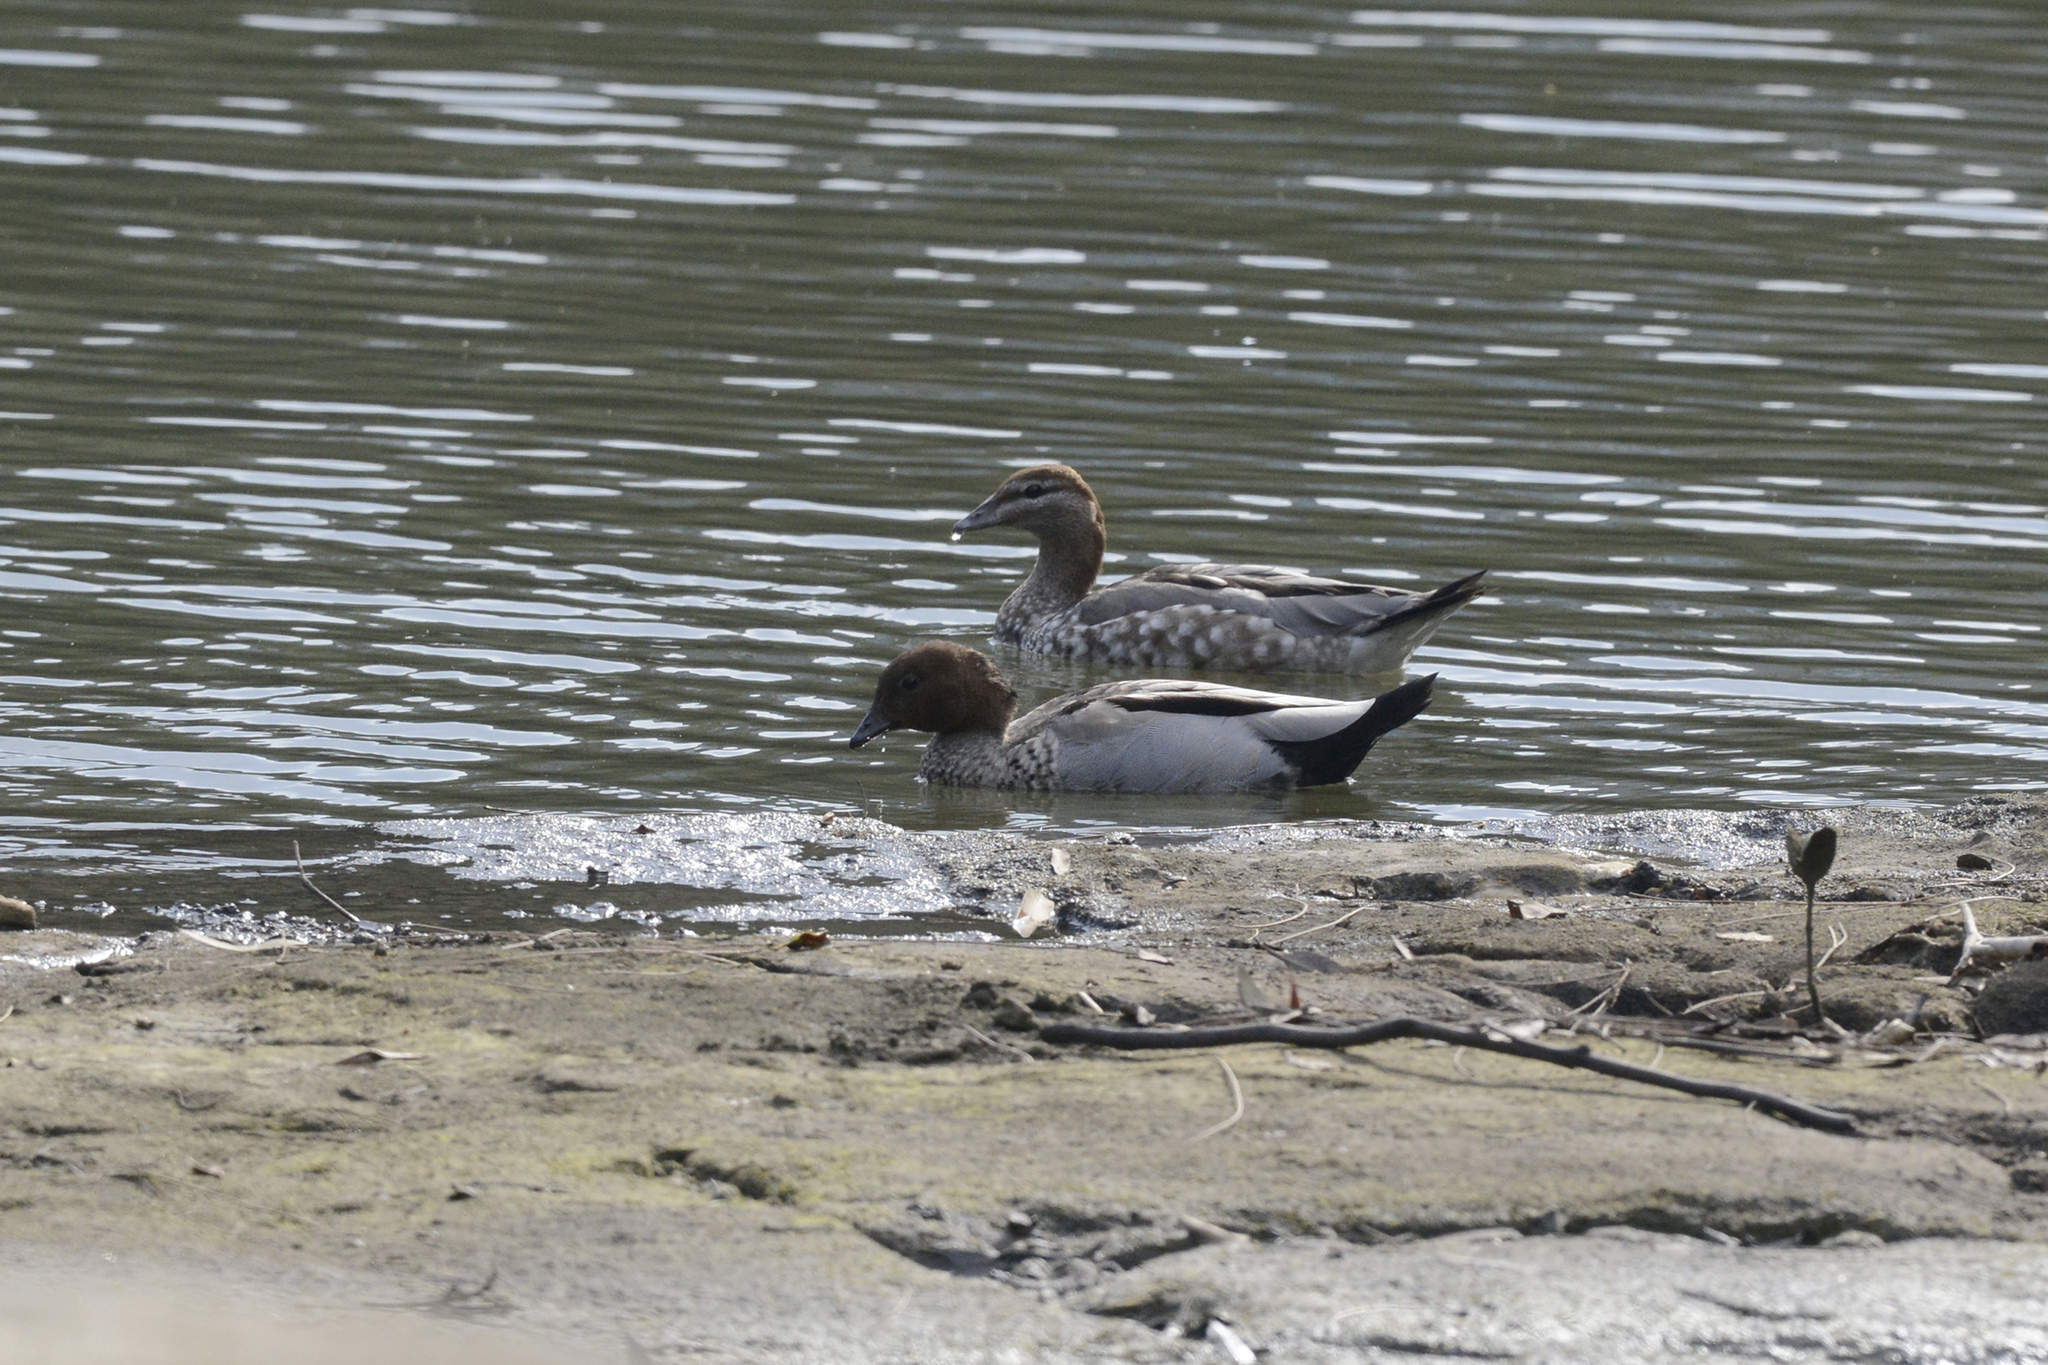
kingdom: Animalia
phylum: Chordata
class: Aves
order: Anseriformes
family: Anatidae
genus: Chenonetta
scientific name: Chenonetta jubata
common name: Maned duck
